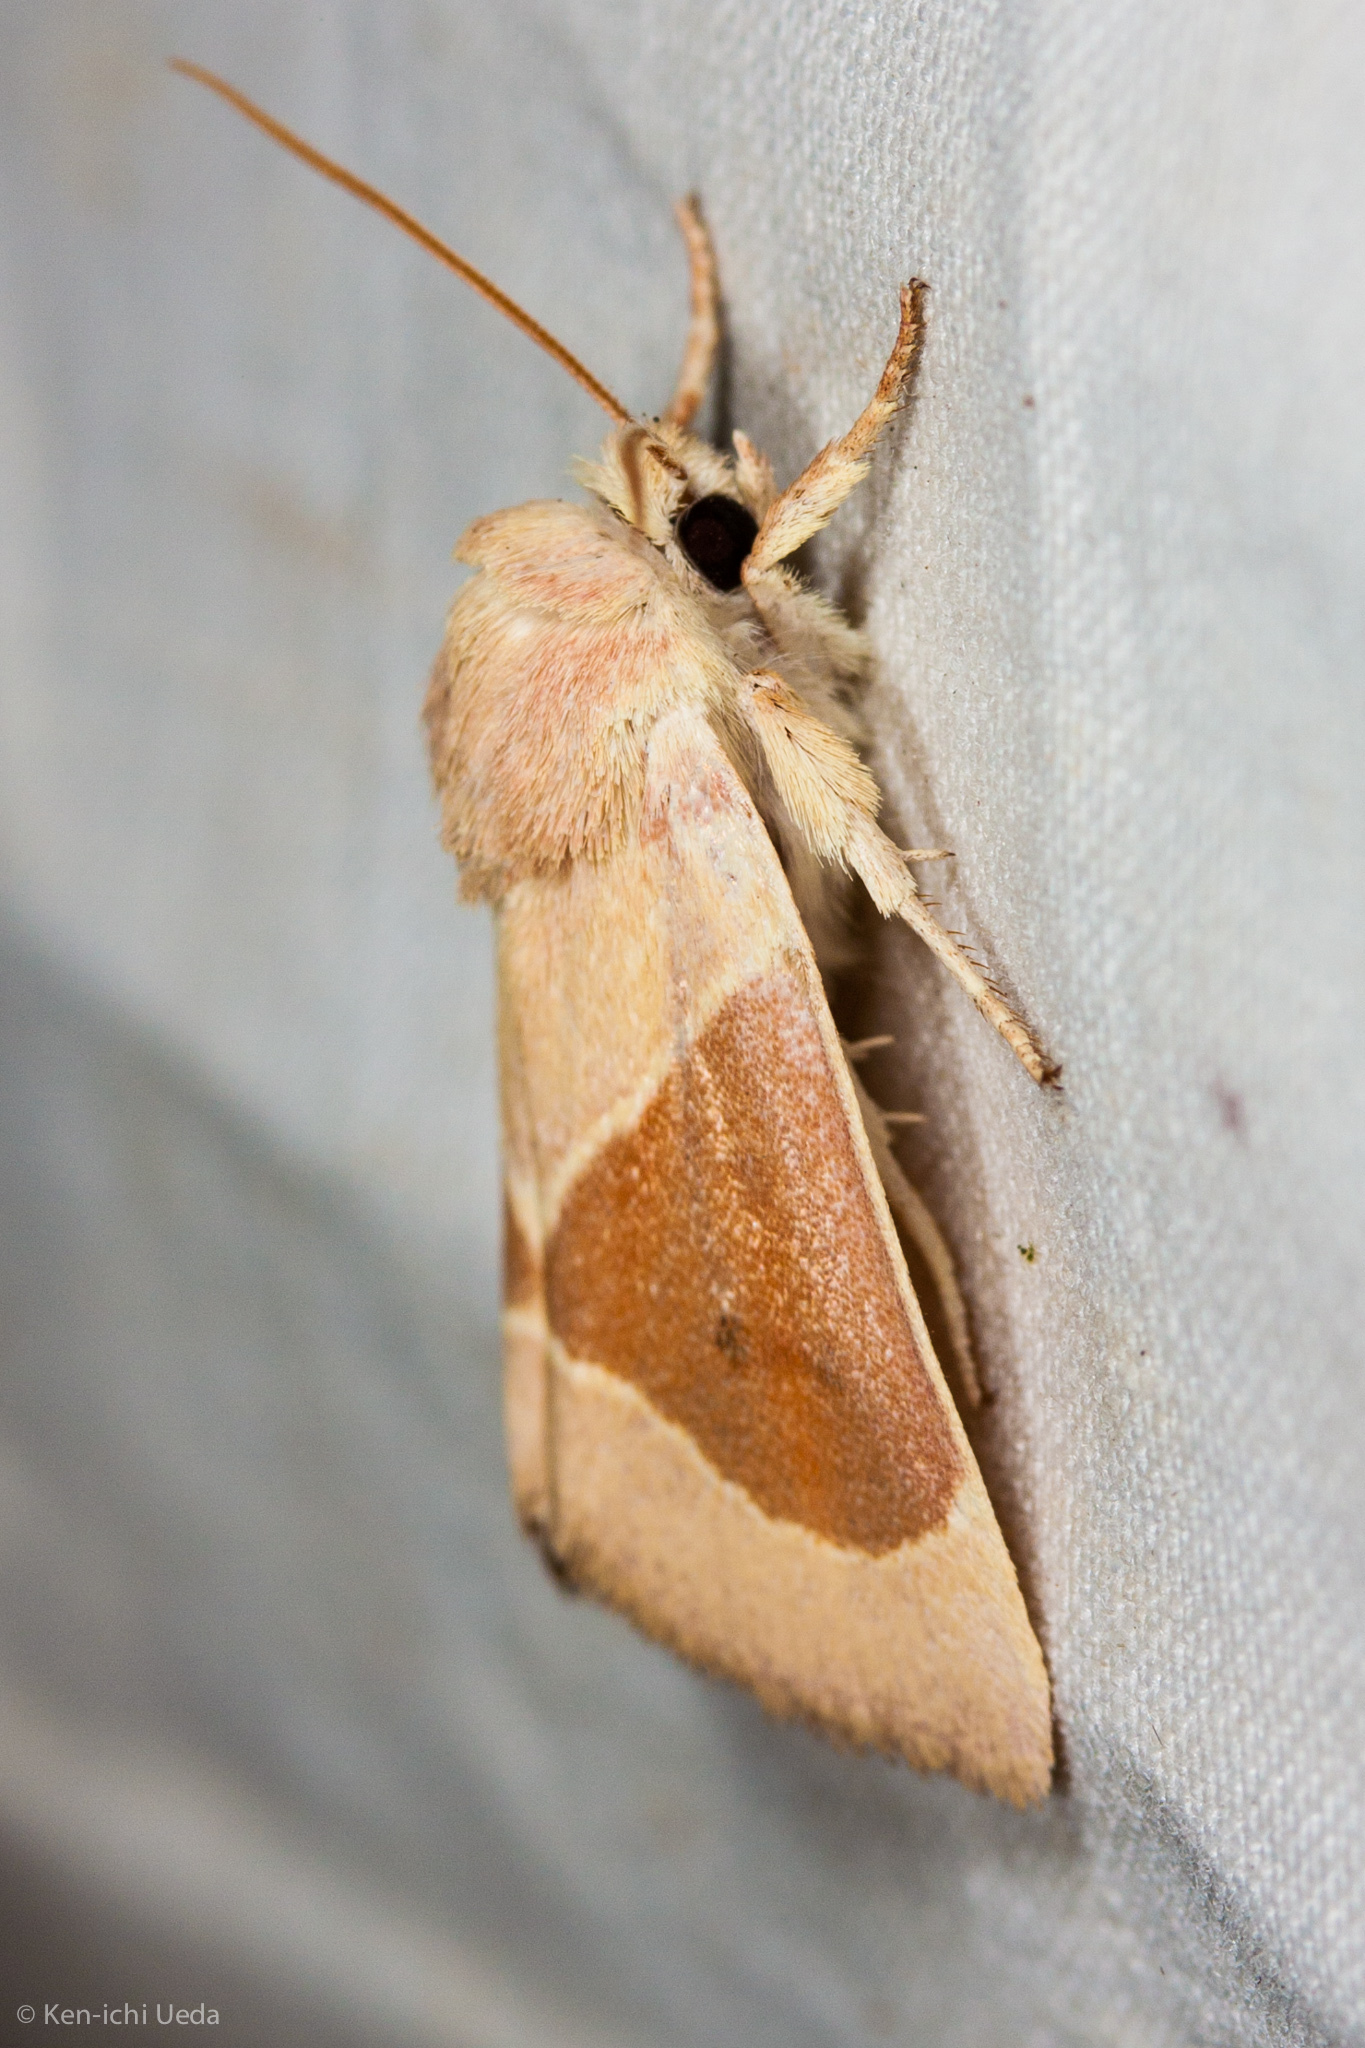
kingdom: Animalia
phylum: Arthropoda
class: Insecta
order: Lepidoptera
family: Noctuidae
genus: Cosmia
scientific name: Cosmia calami
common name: American dun-bar moth
